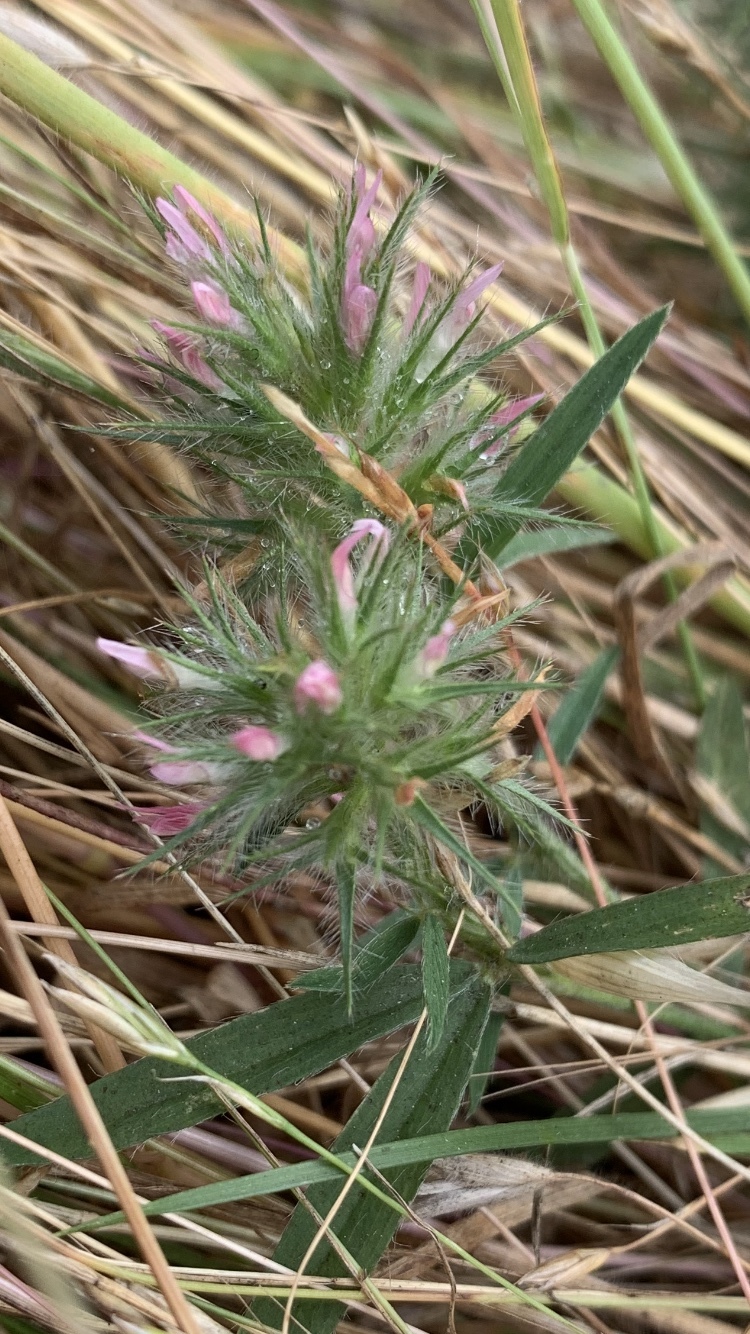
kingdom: Plantae
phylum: Tracheophyta
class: Magnoliopsida
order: Fabales
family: Fabaceae
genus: Trifolium
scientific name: Trifolium angustifolium
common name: Narrow clover
